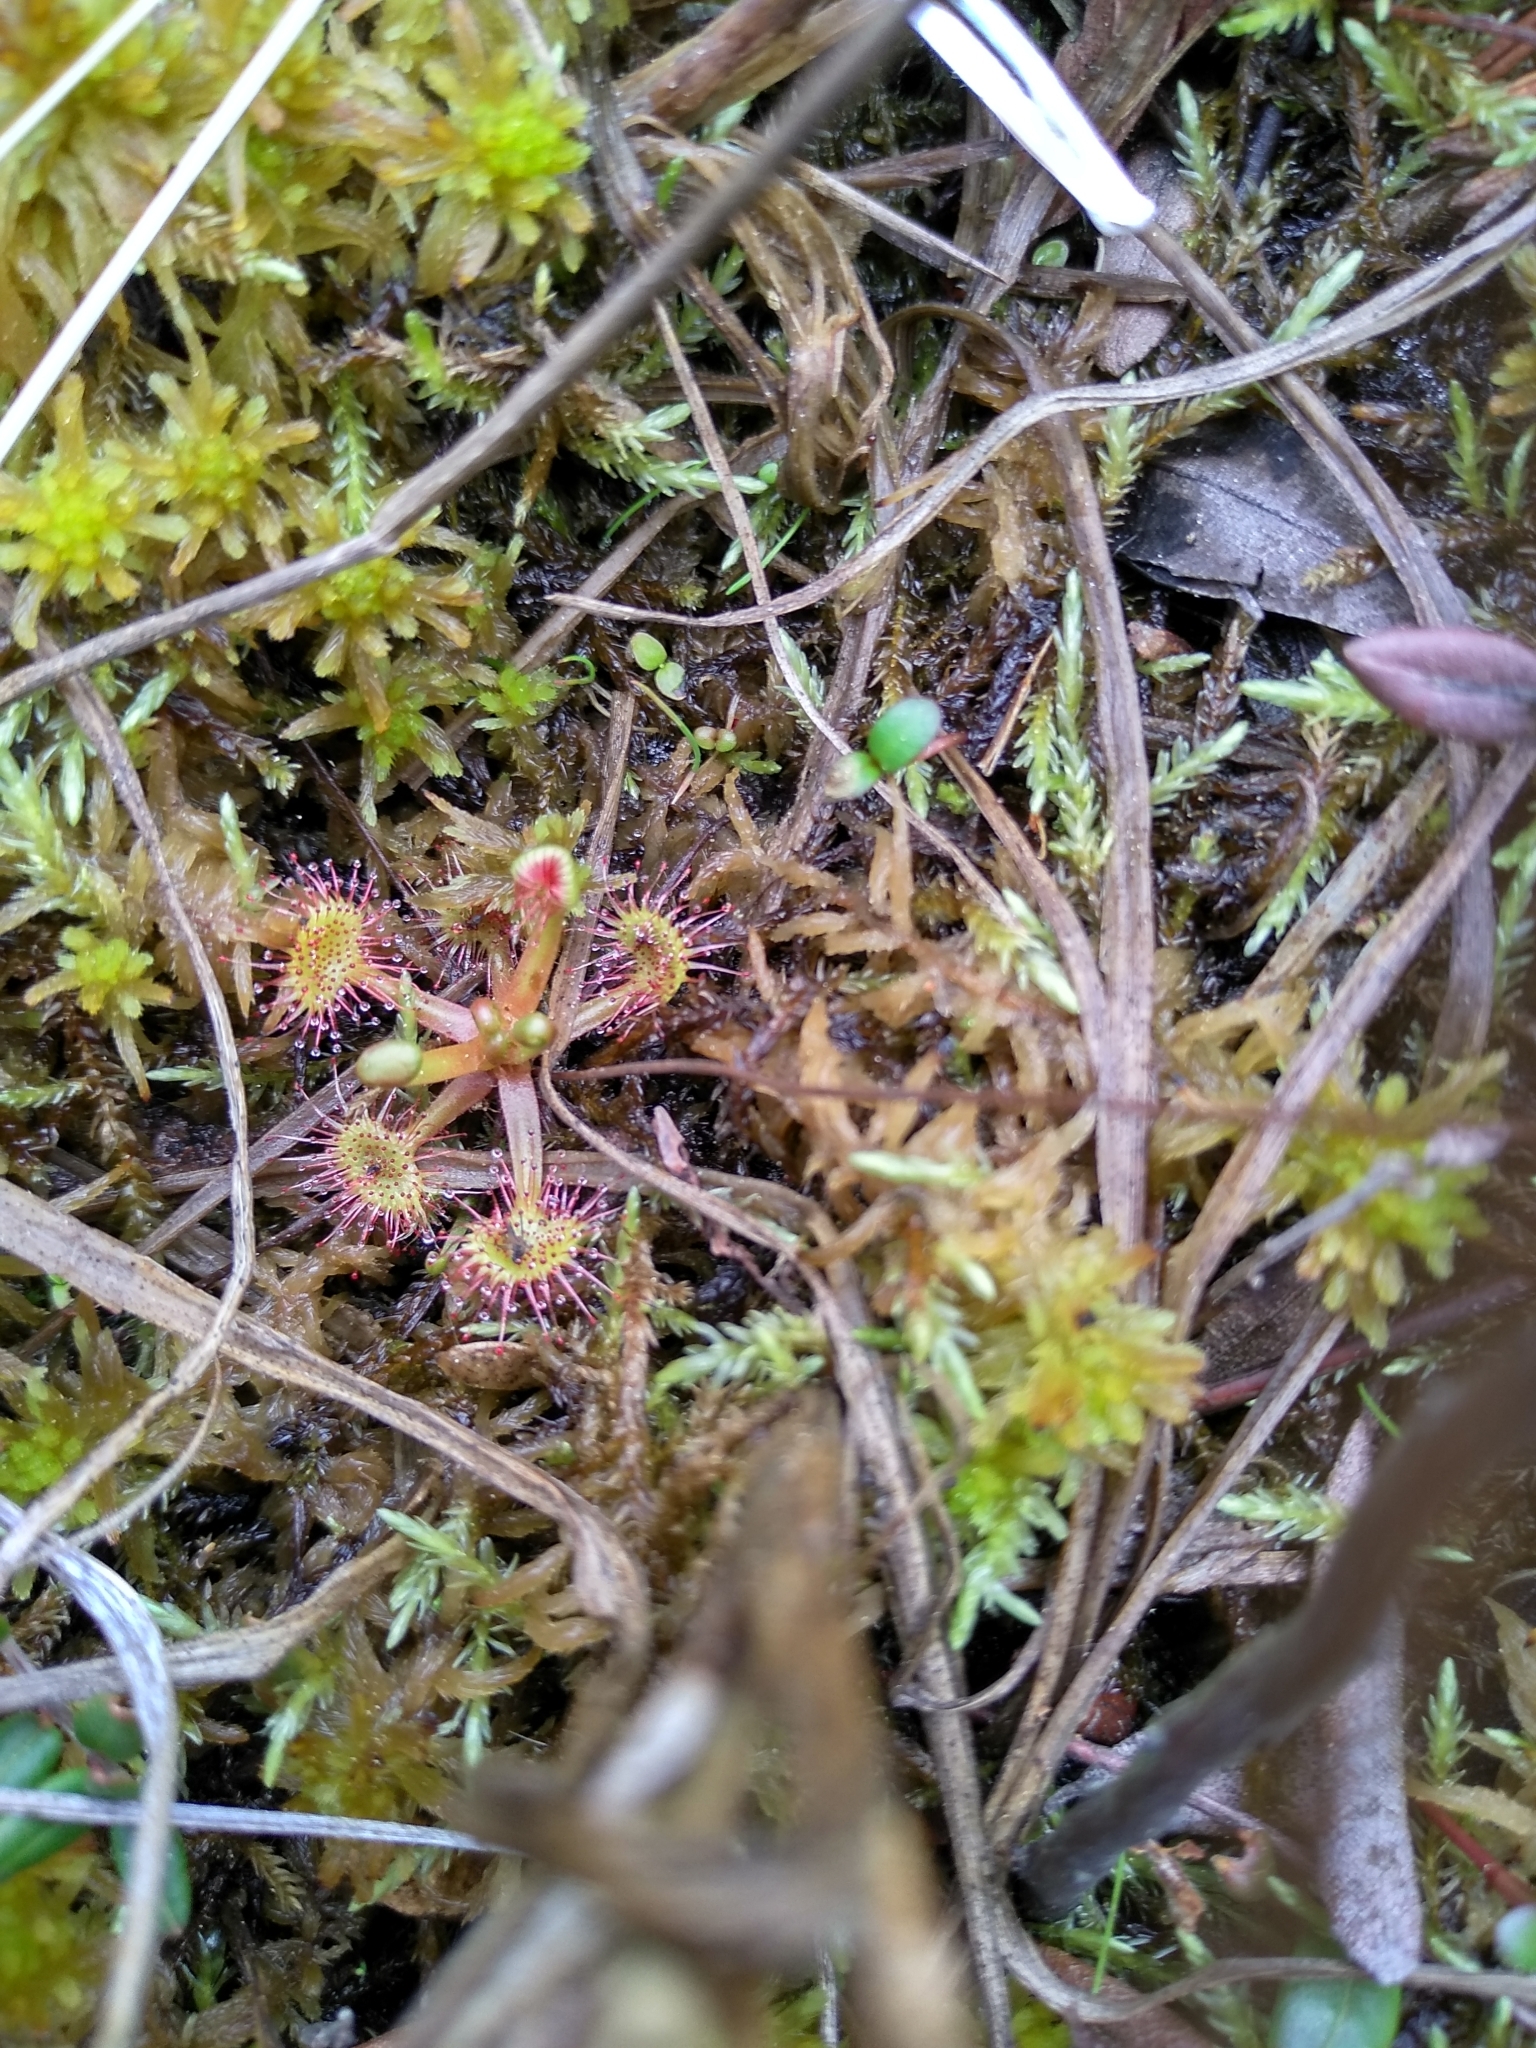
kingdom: Plantae
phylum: Tracheophyta
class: Magnoliopsida
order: Caryophyllales
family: Droseraceae
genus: Drosera
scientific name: Drosera rotundifolia
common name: Round-leaved sundew
